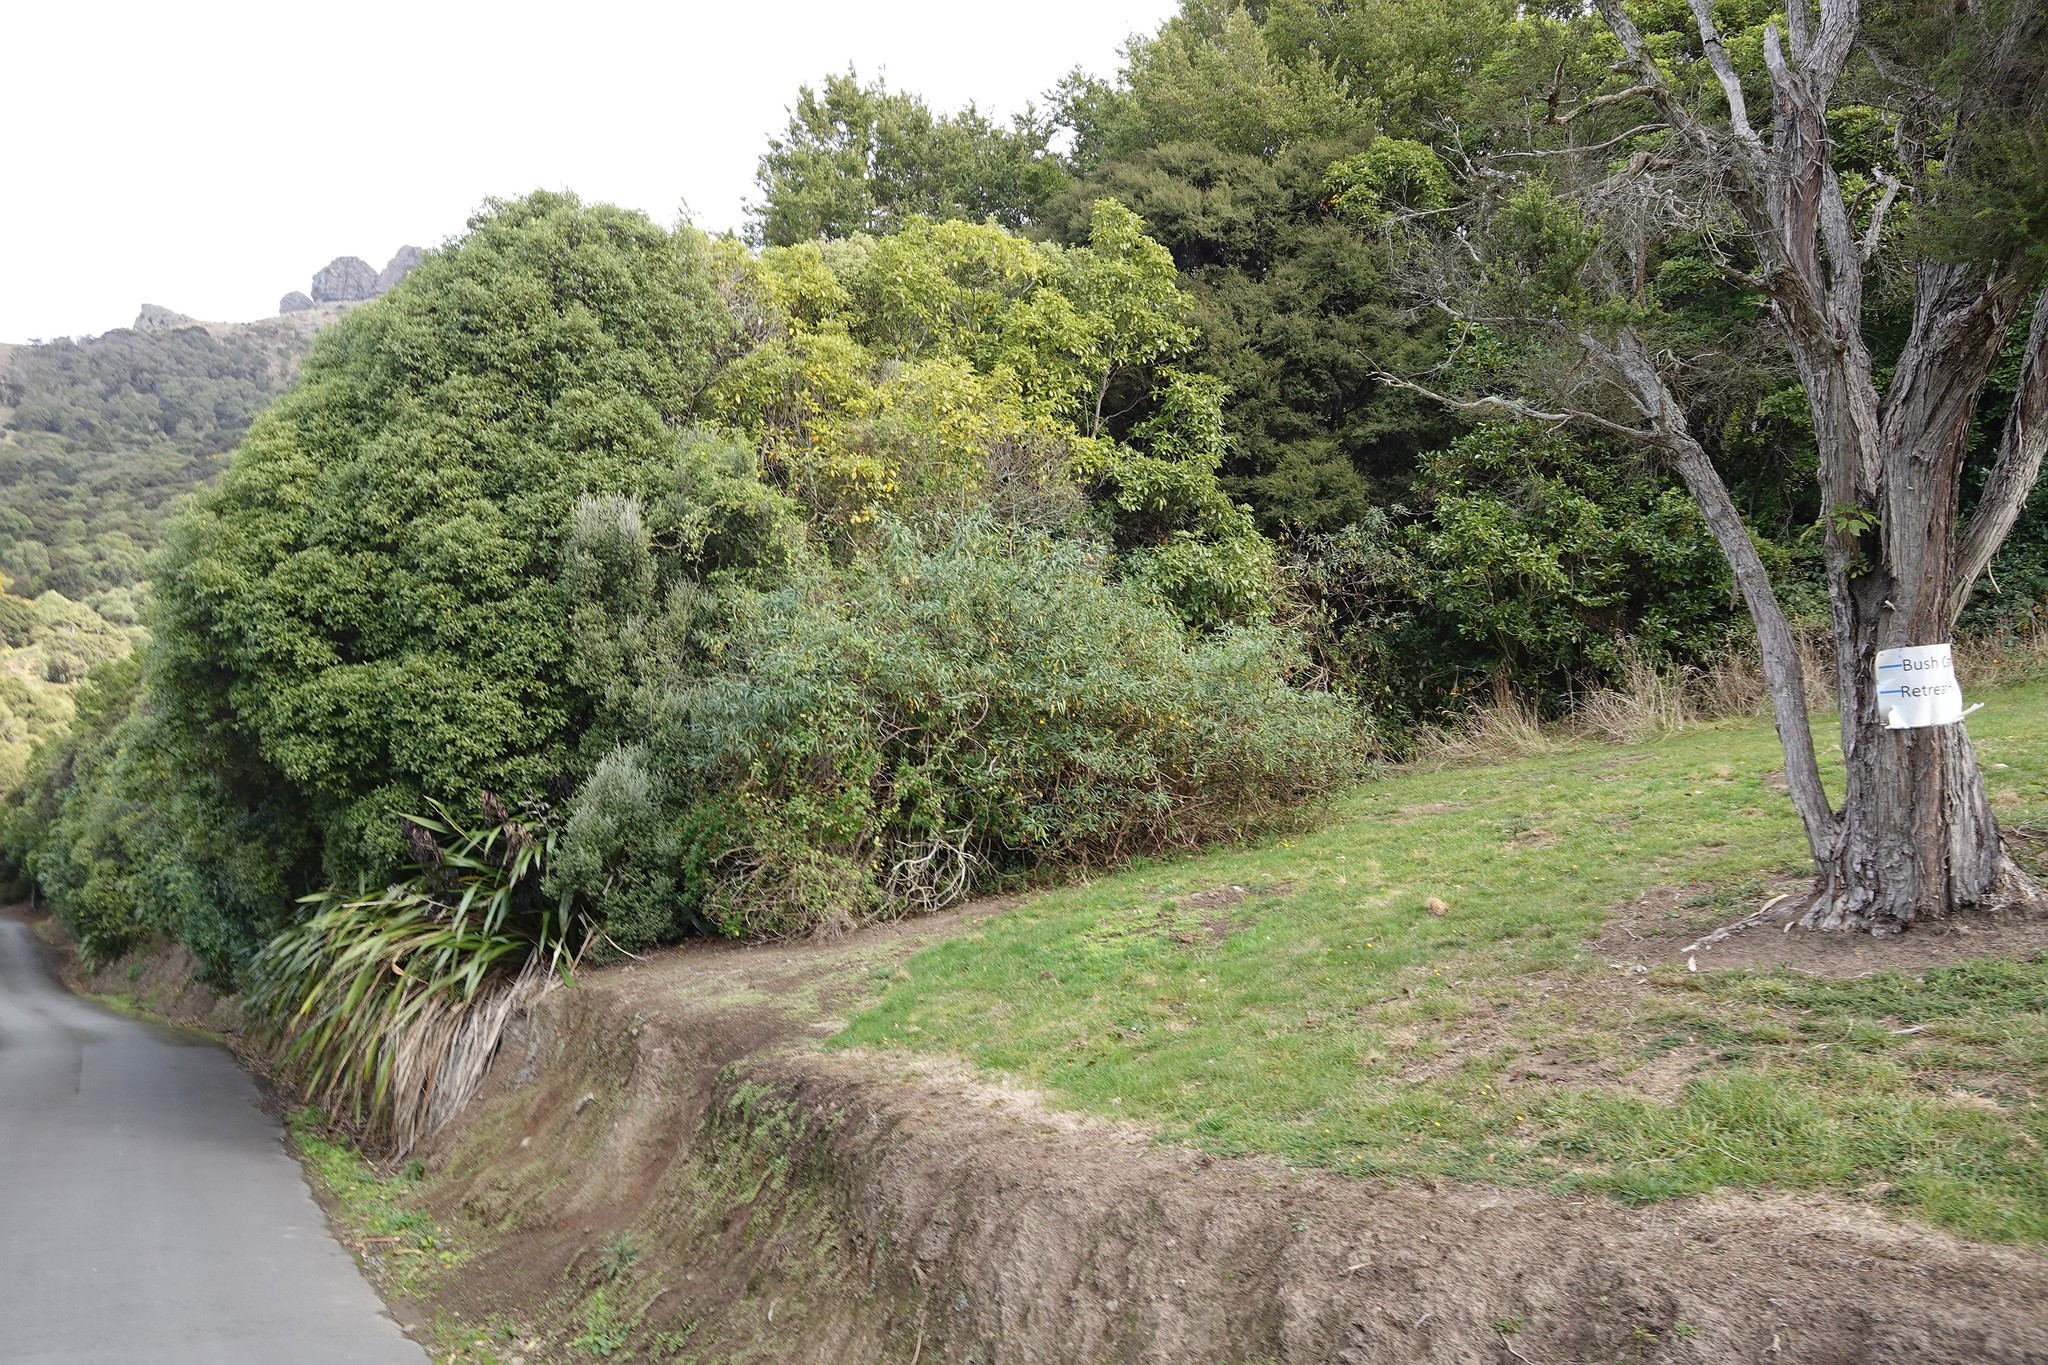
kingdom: Plantae
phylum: Tracheophyta
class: Magnoliopsida
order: Solanales
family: Solanaceae
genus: Solanum
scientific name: Solanum
